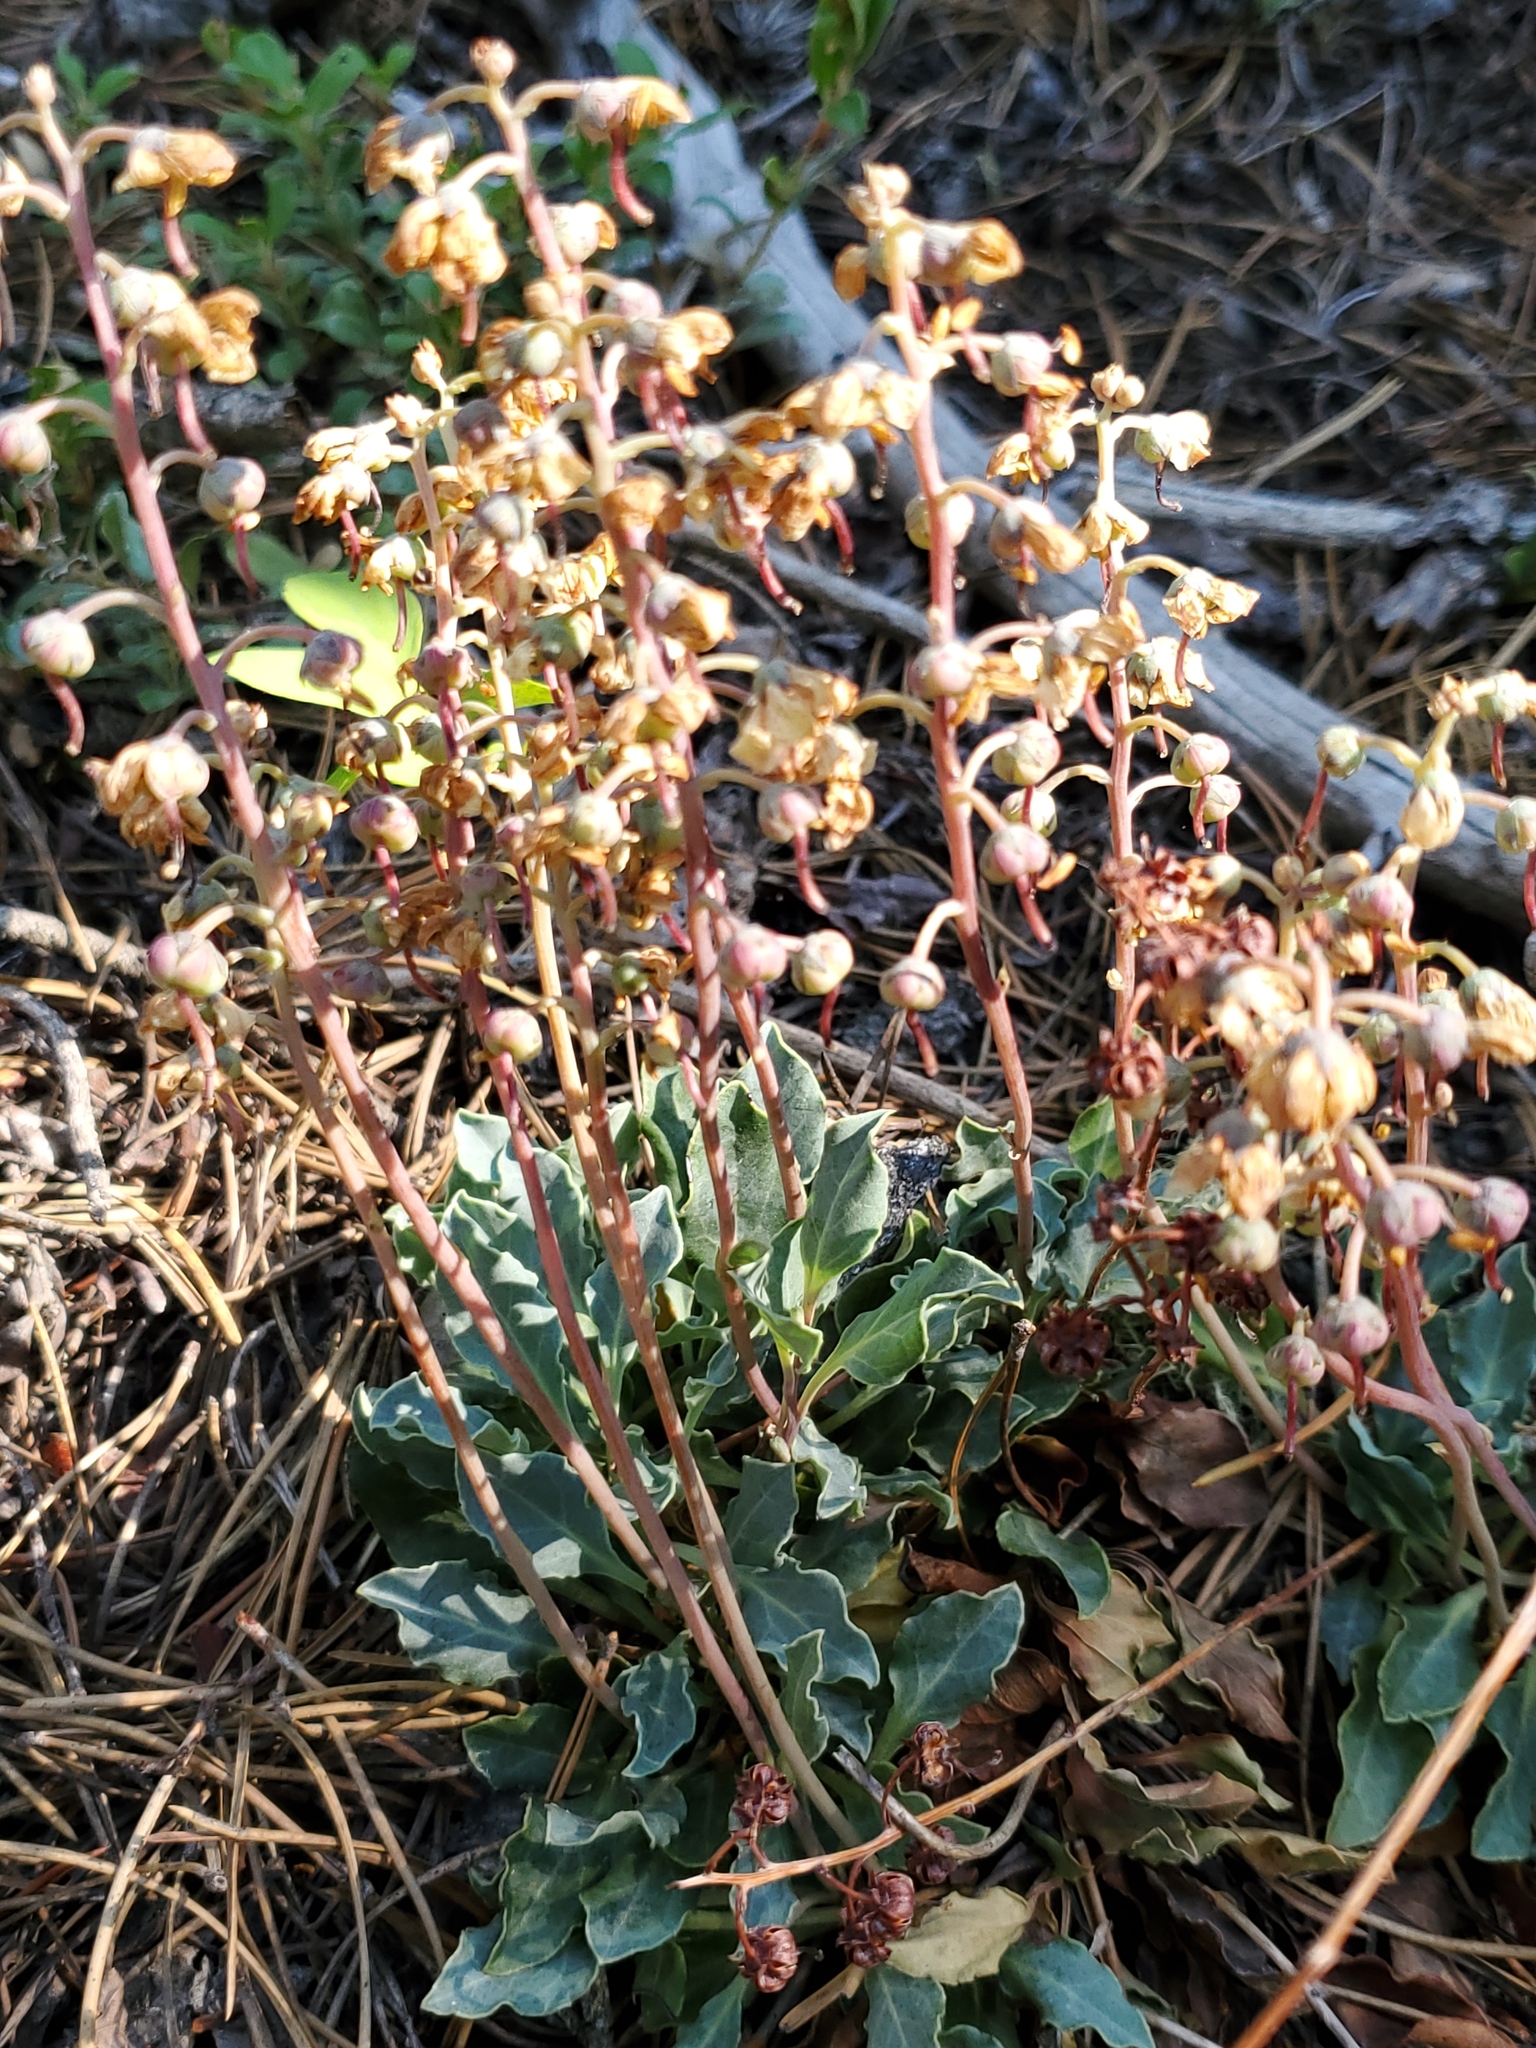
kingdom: Plantae
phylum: Tracheophyta
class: Magnoliopsida
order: Ericales
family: Ericaceae
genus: Pyrola
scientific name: Pyrola dentata
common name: Tooth-leaved wintergreen
